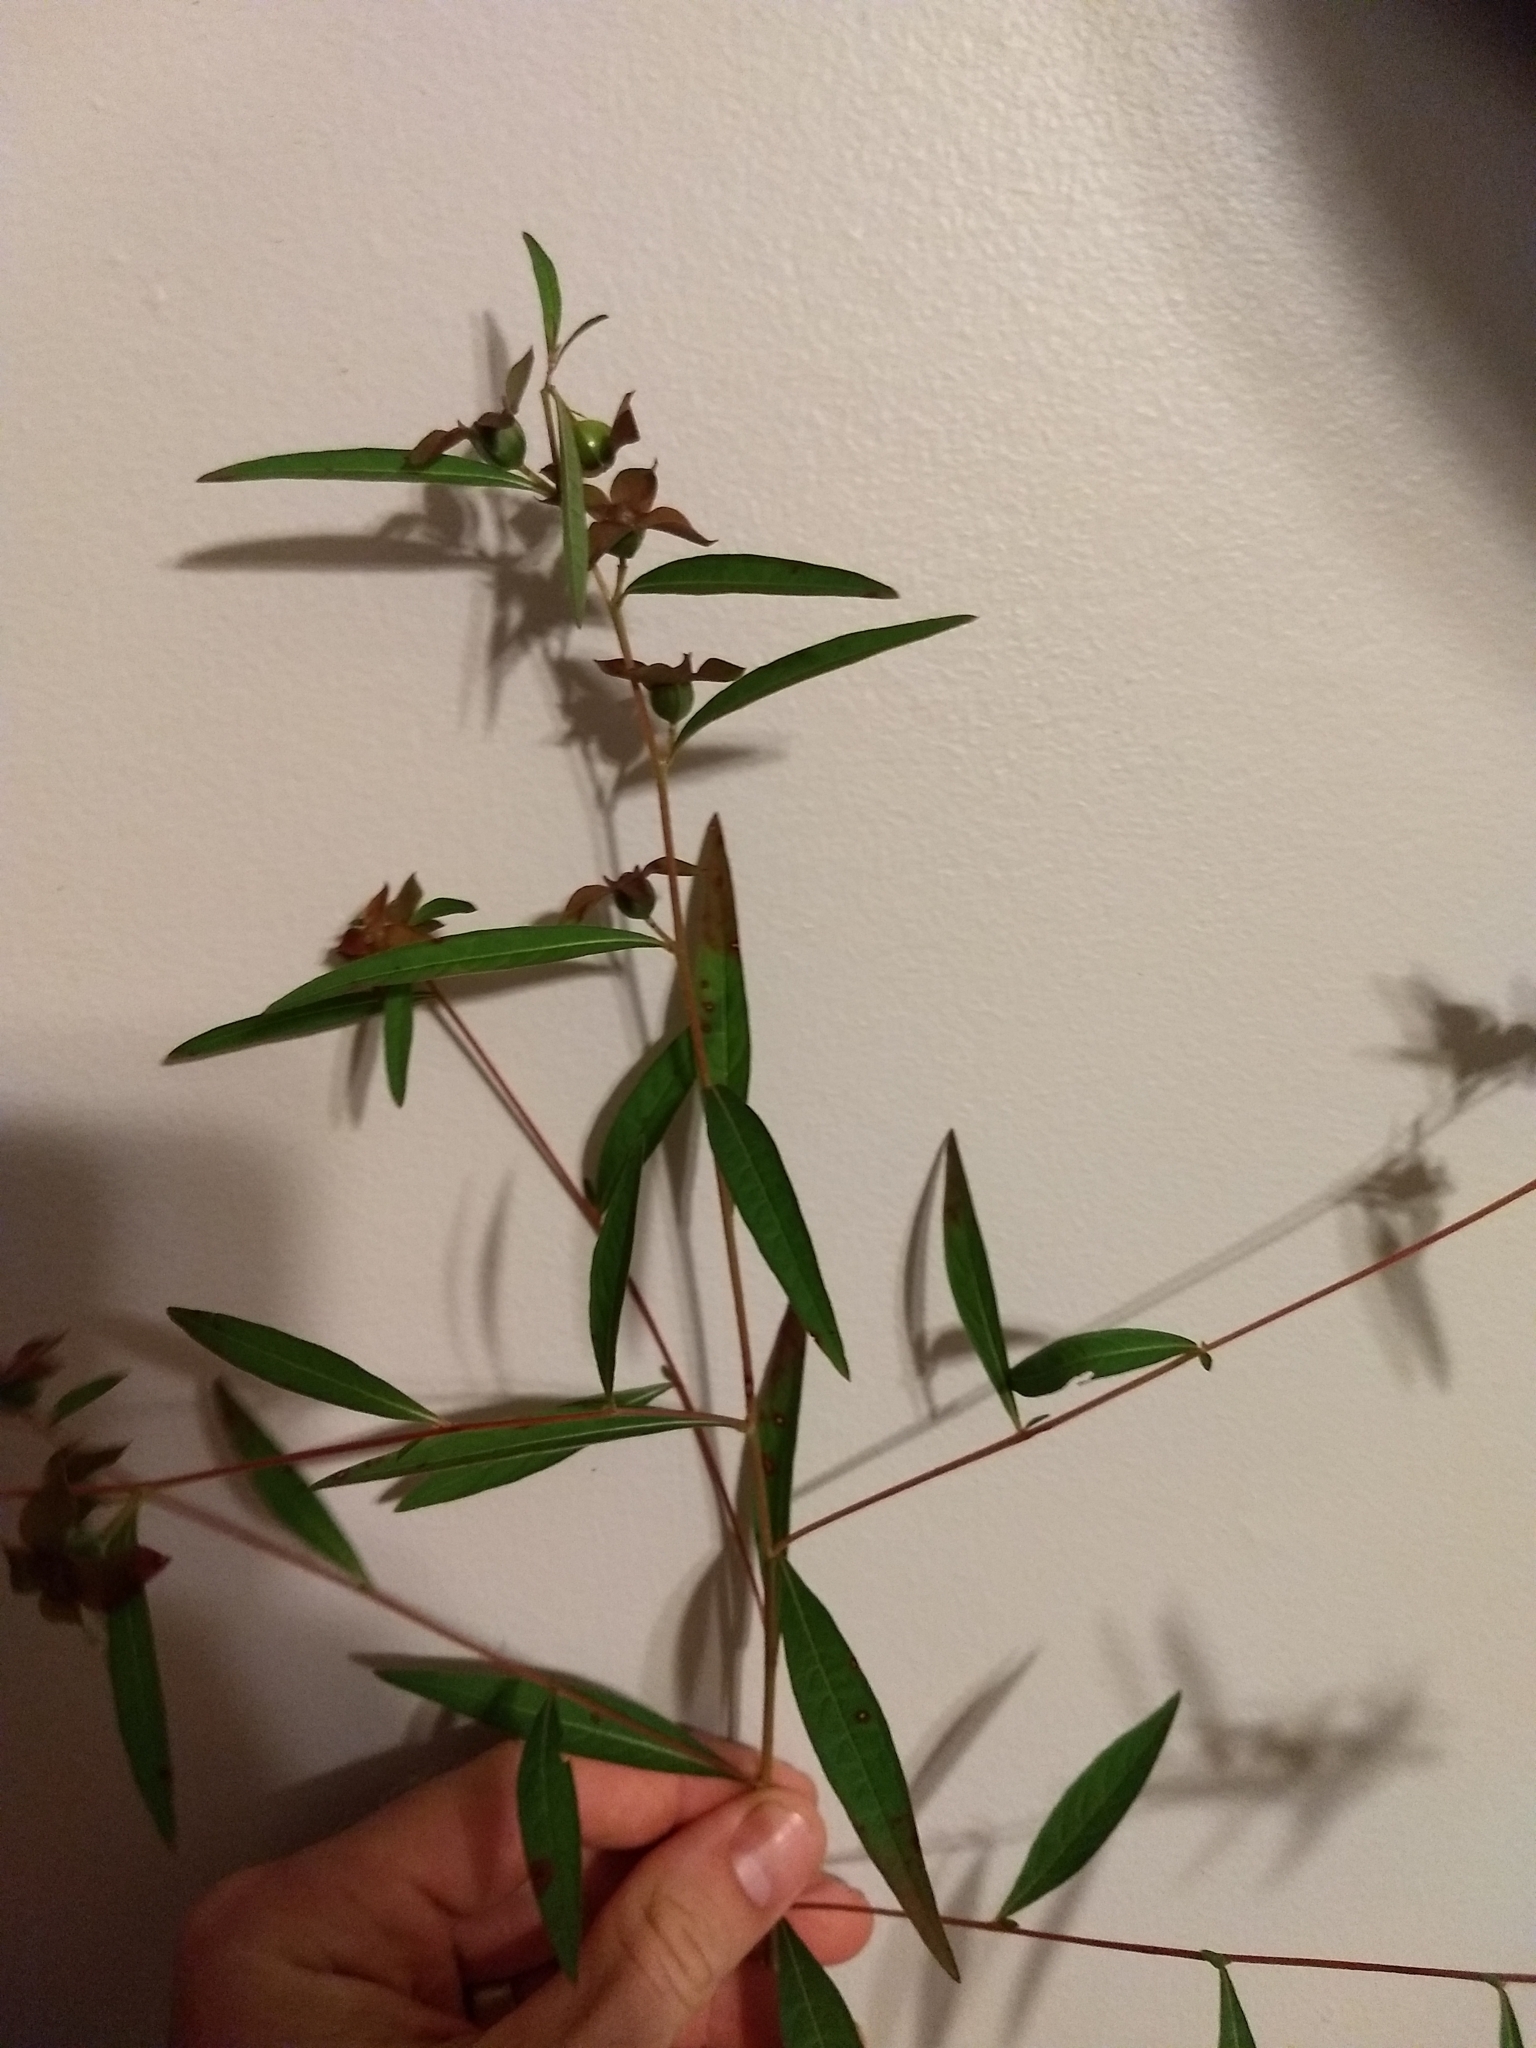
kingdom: Plantae
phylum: Tracheophyta
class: Magnoliopsida
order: Myrtales
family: Onagraceae
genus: Ludwigia
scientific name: Ludwigia alternifolia
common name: Rattlebox
